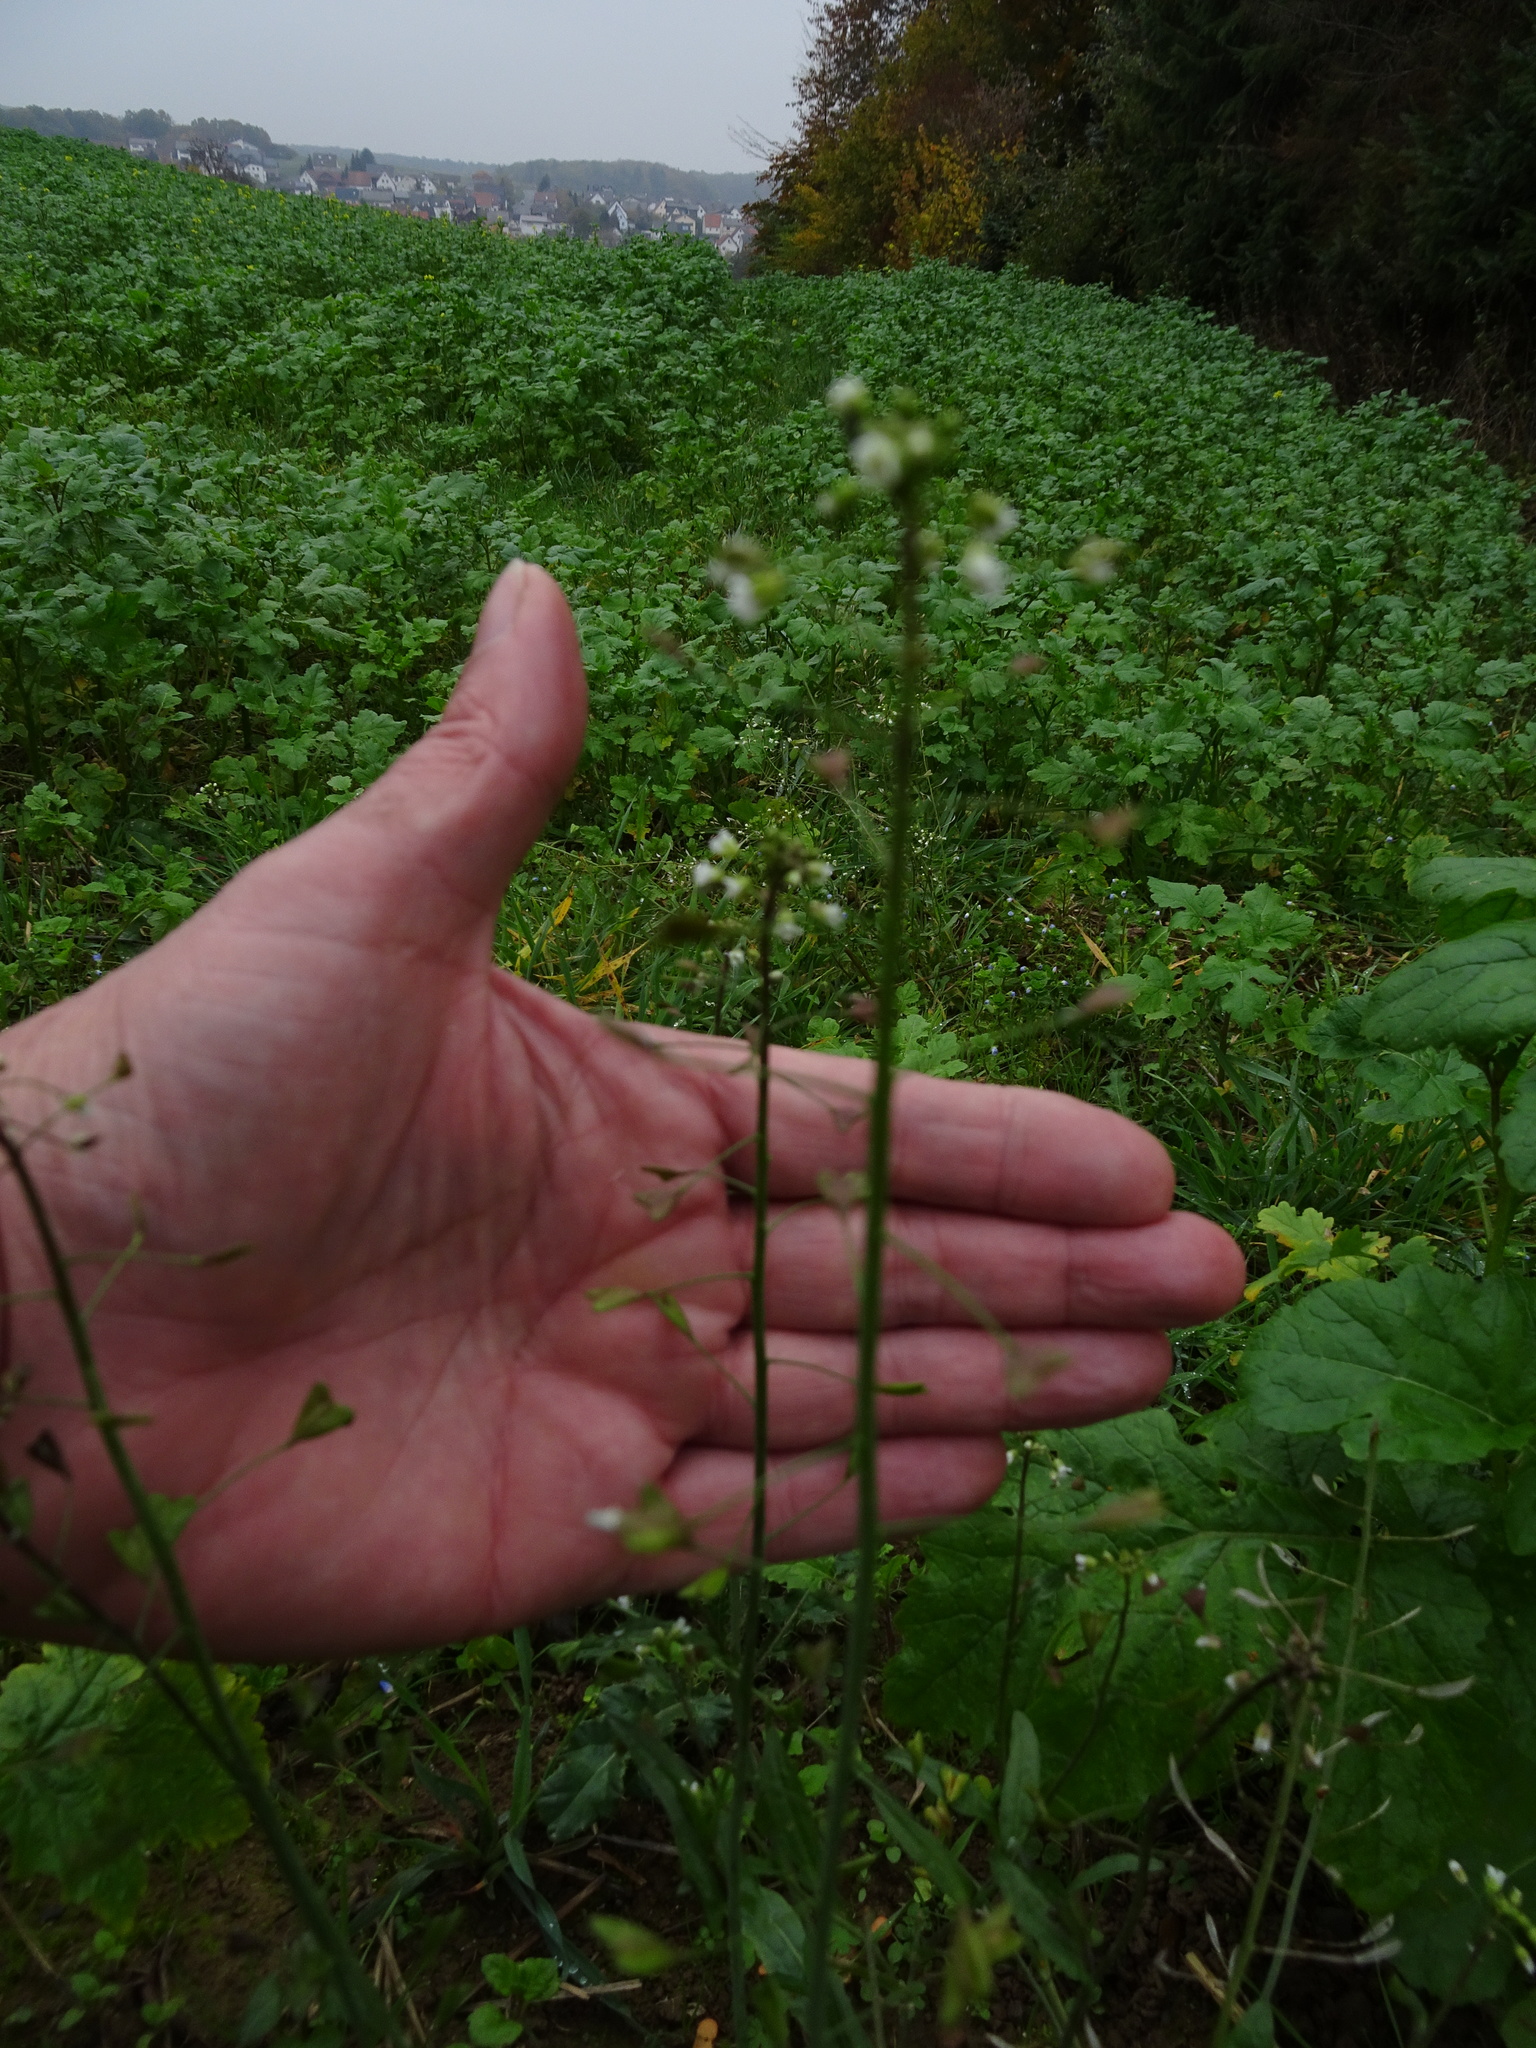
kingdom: Plantae
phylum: Tracheophyta
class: Magnoliopsida
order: Brassicales
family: Brassicaceae
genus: Capsella
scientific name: Capsella bursa-pastoris
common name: Shepherd's purse
